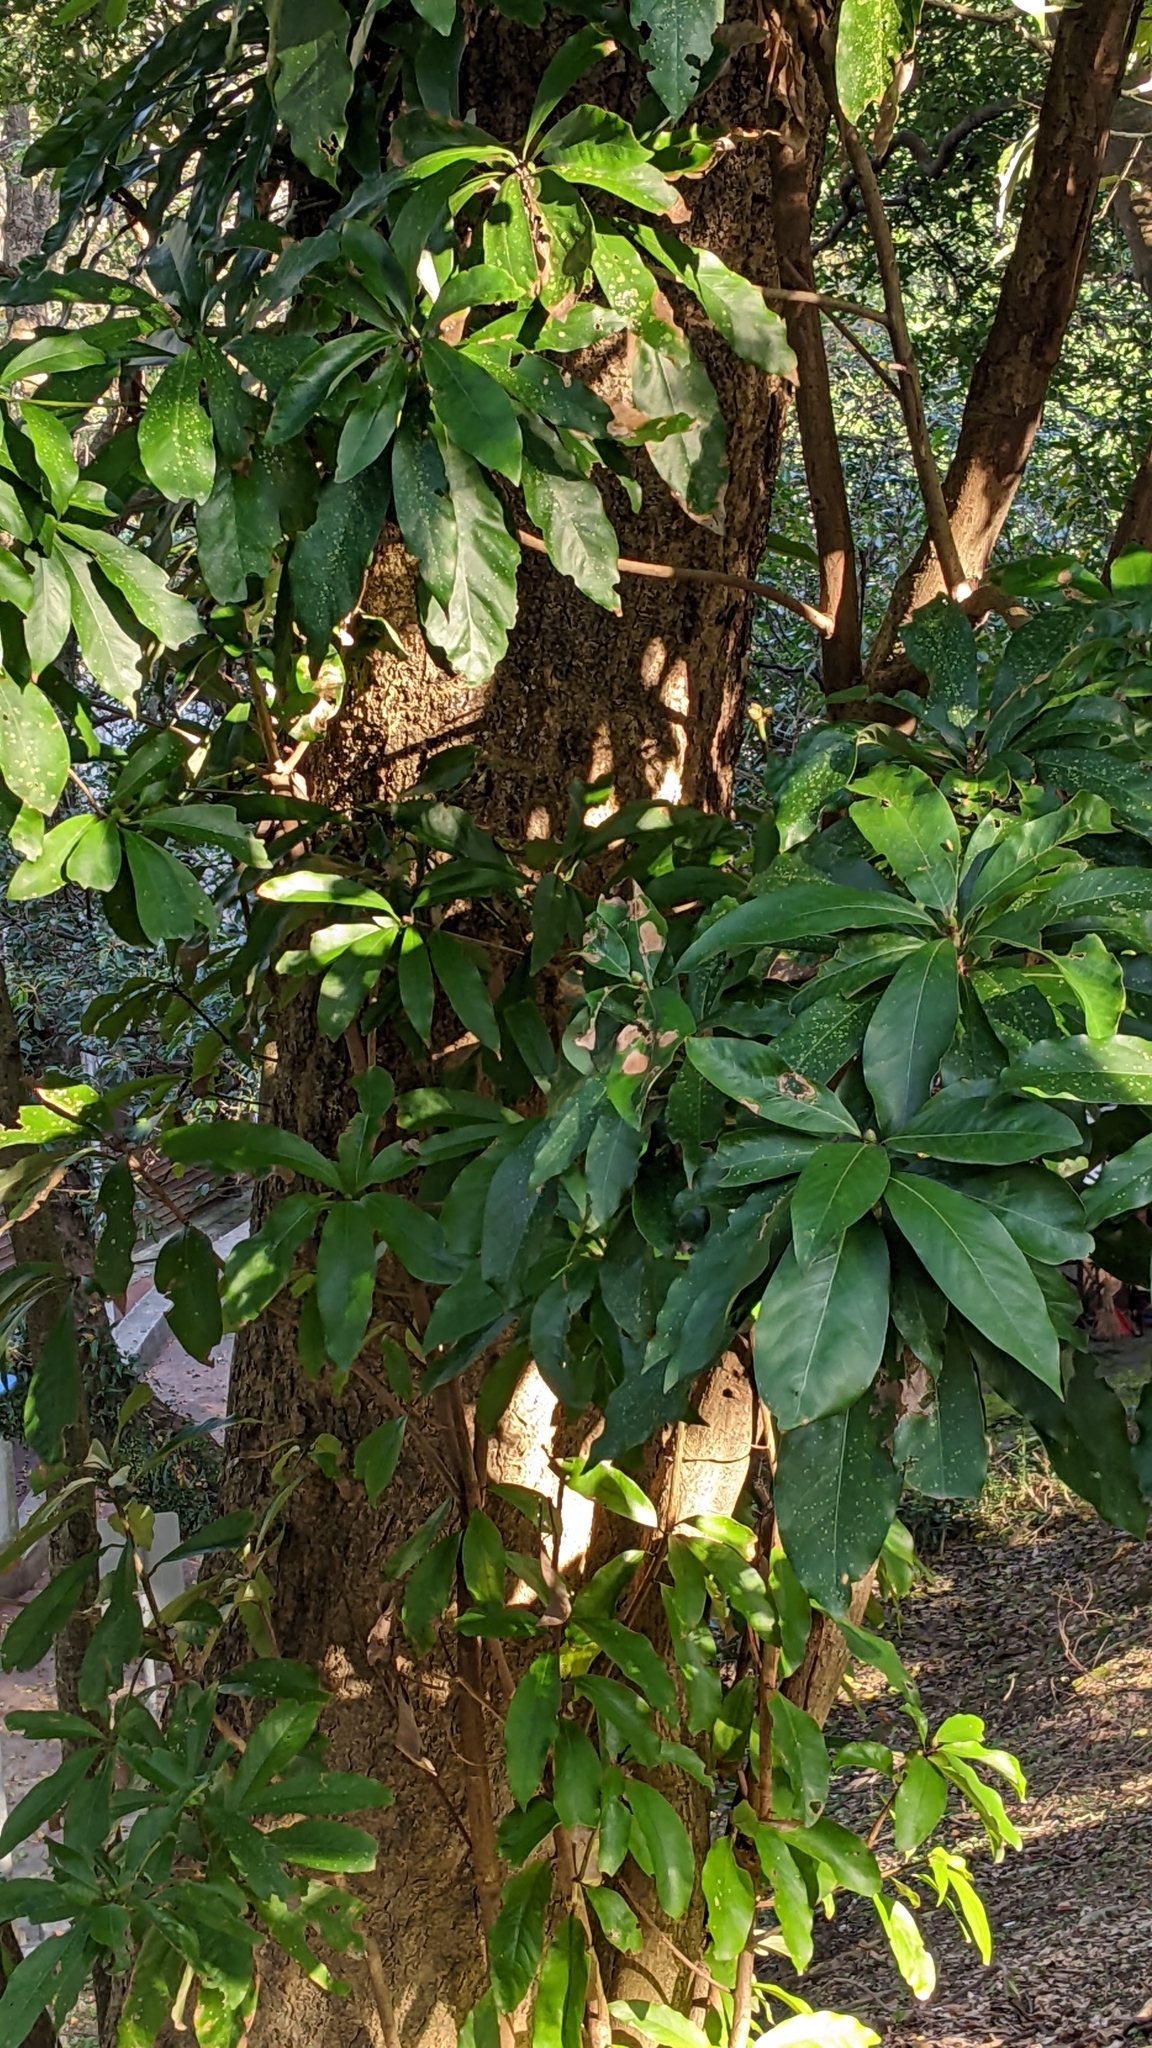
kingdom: Plantae
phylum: Tracheophyta
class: Magnoliopsida
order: Laurales
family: Lauraceae
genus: Machilus
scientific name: Machilus japonica
